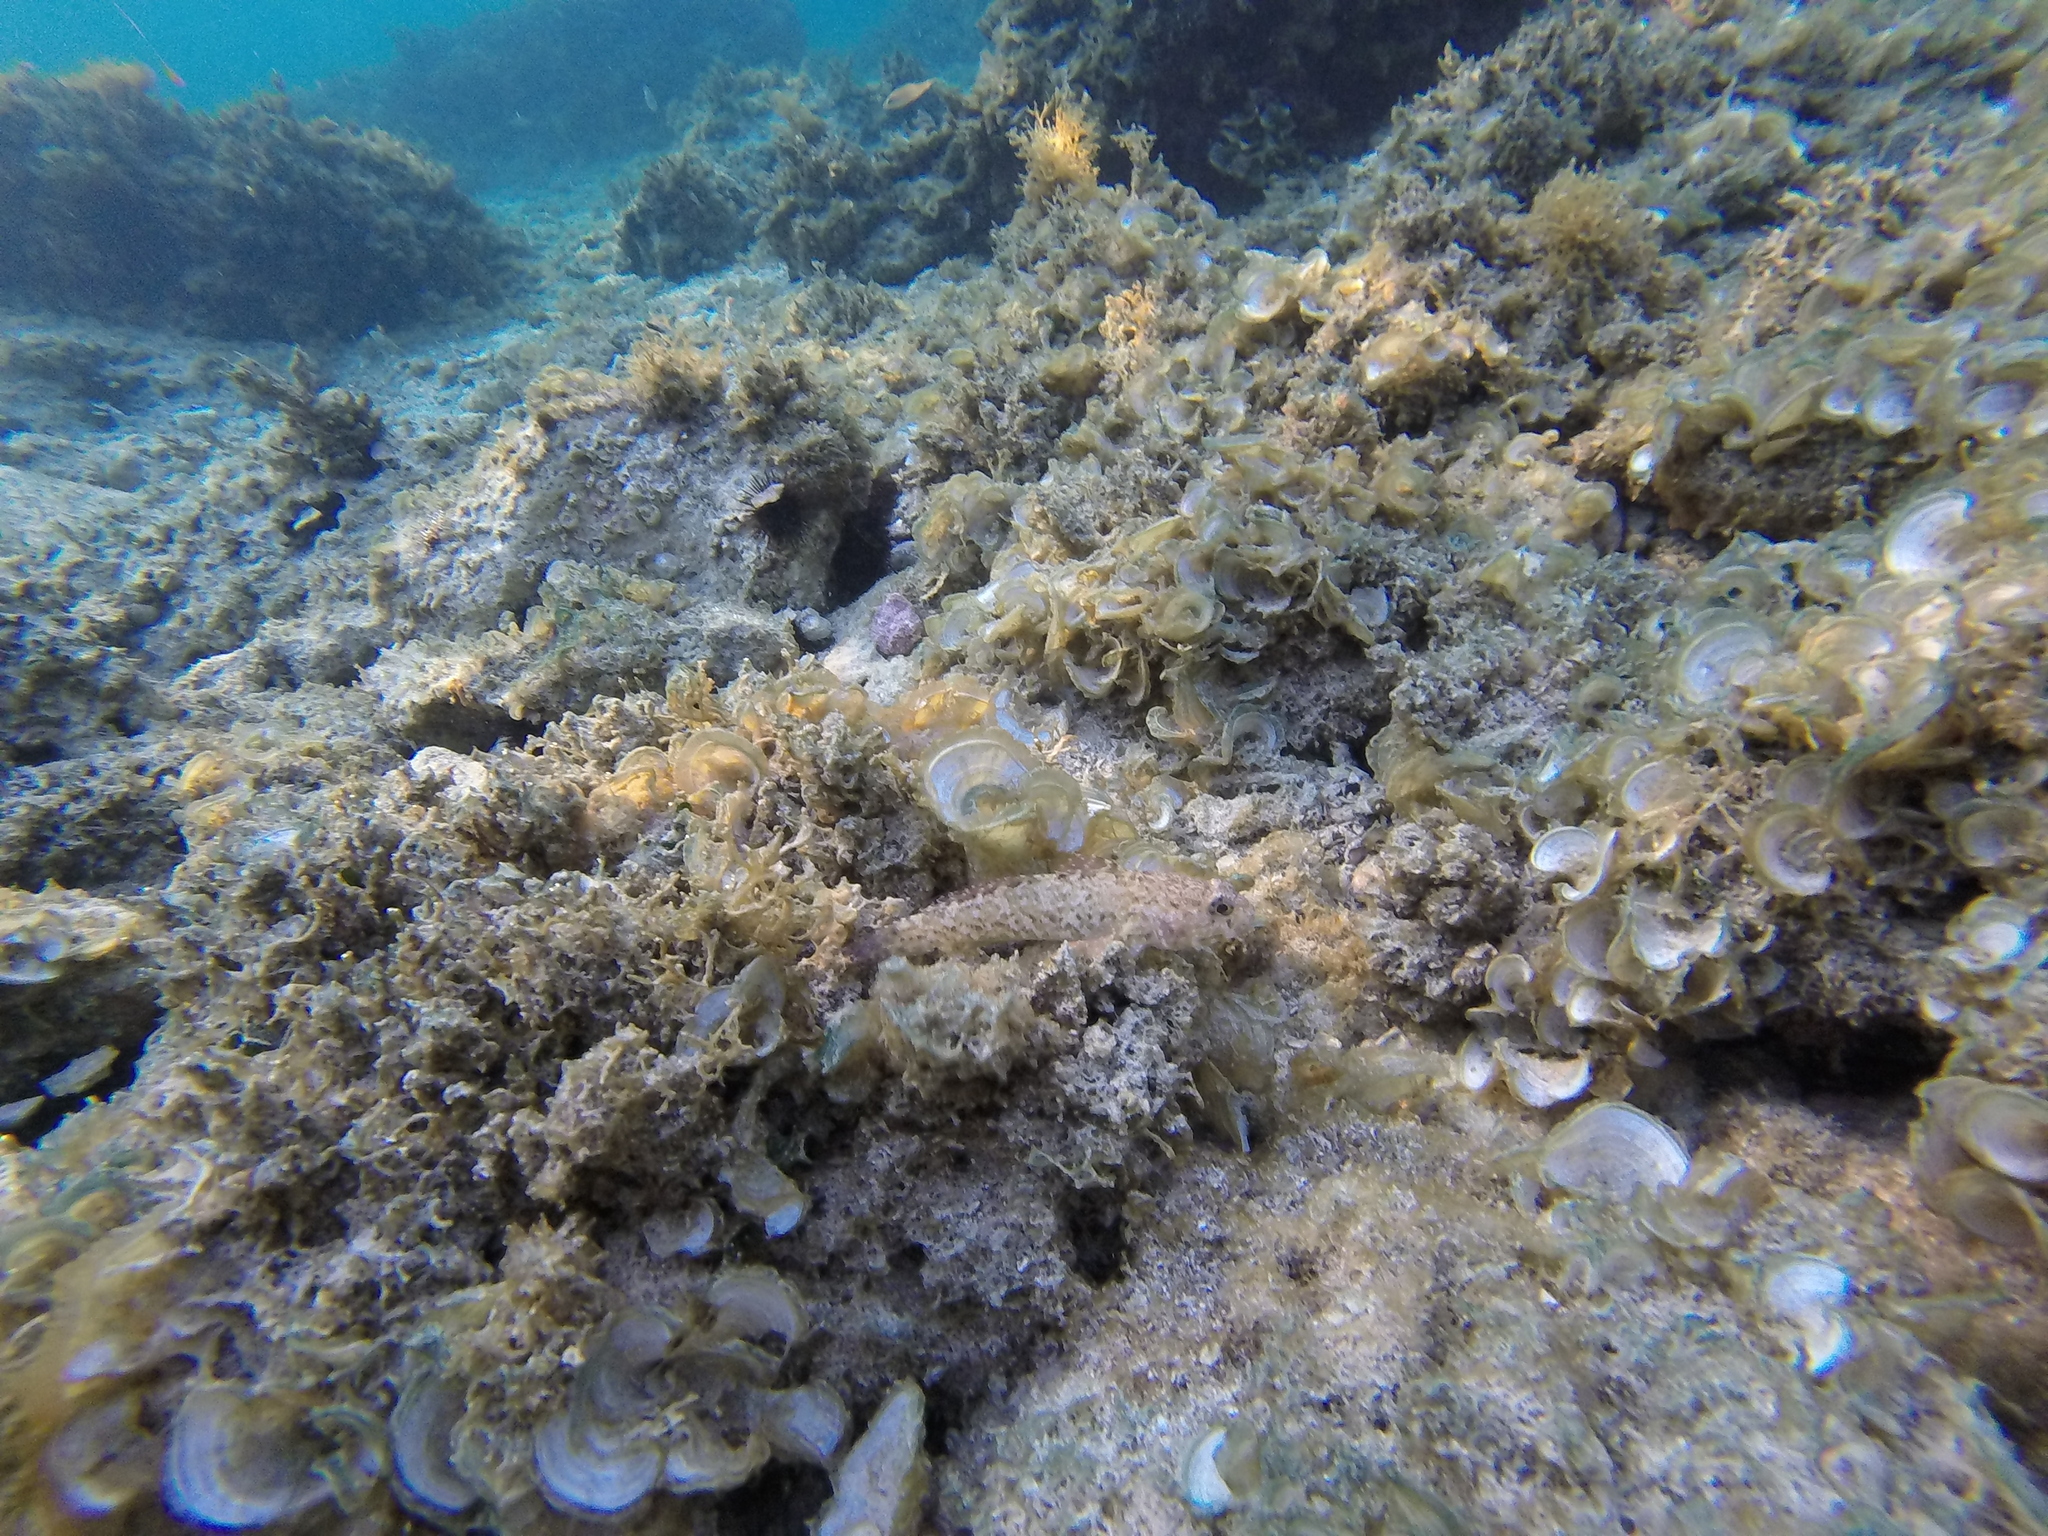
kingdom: Animalia
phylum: Chordata
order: Perciformes
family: Gobiidae
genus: Gobius
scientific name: Gobius paganellus
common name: Rock goby
